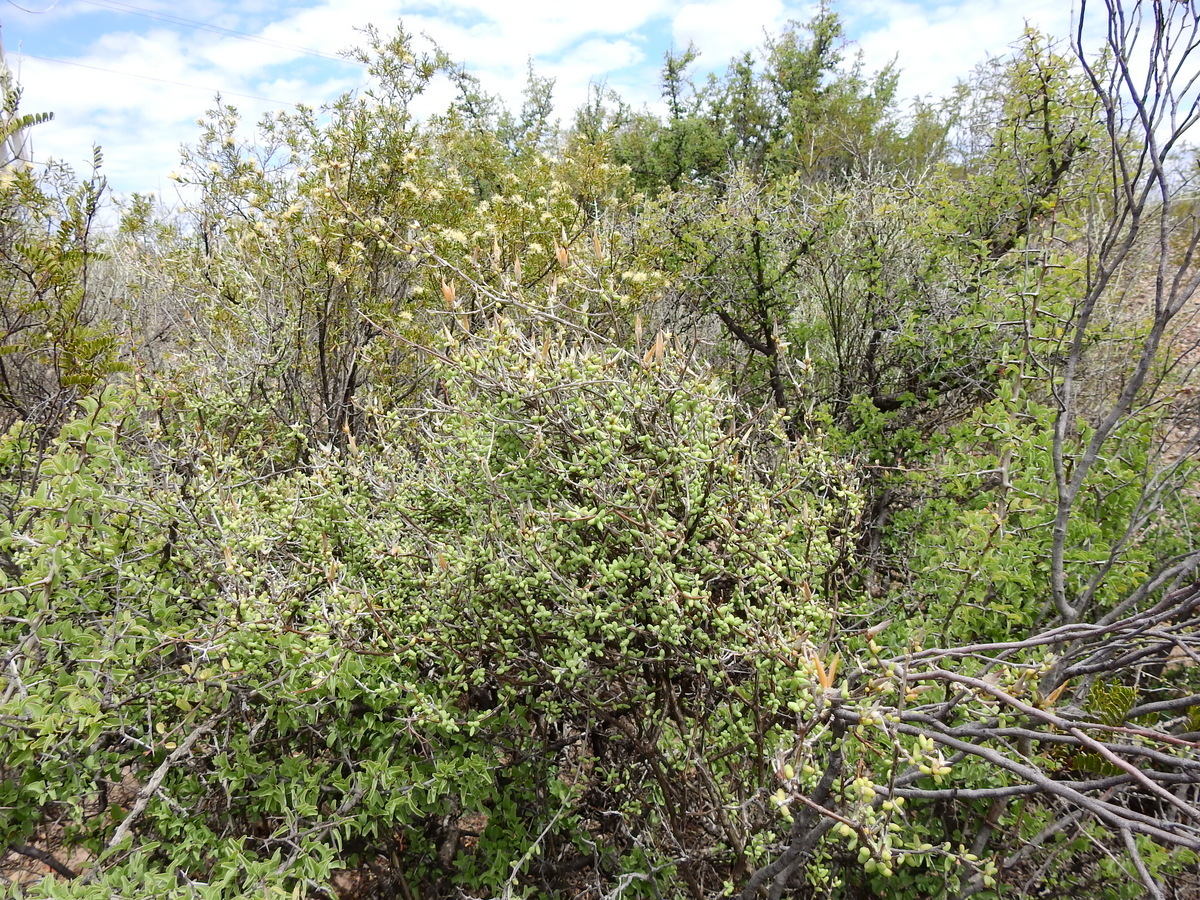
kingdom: Plantae
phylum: Tracheophyta
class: Magnoliopsida
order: Caryophyllales
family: Anacampserotaceae
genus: Grahamia
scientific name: Grahamia bracteata
